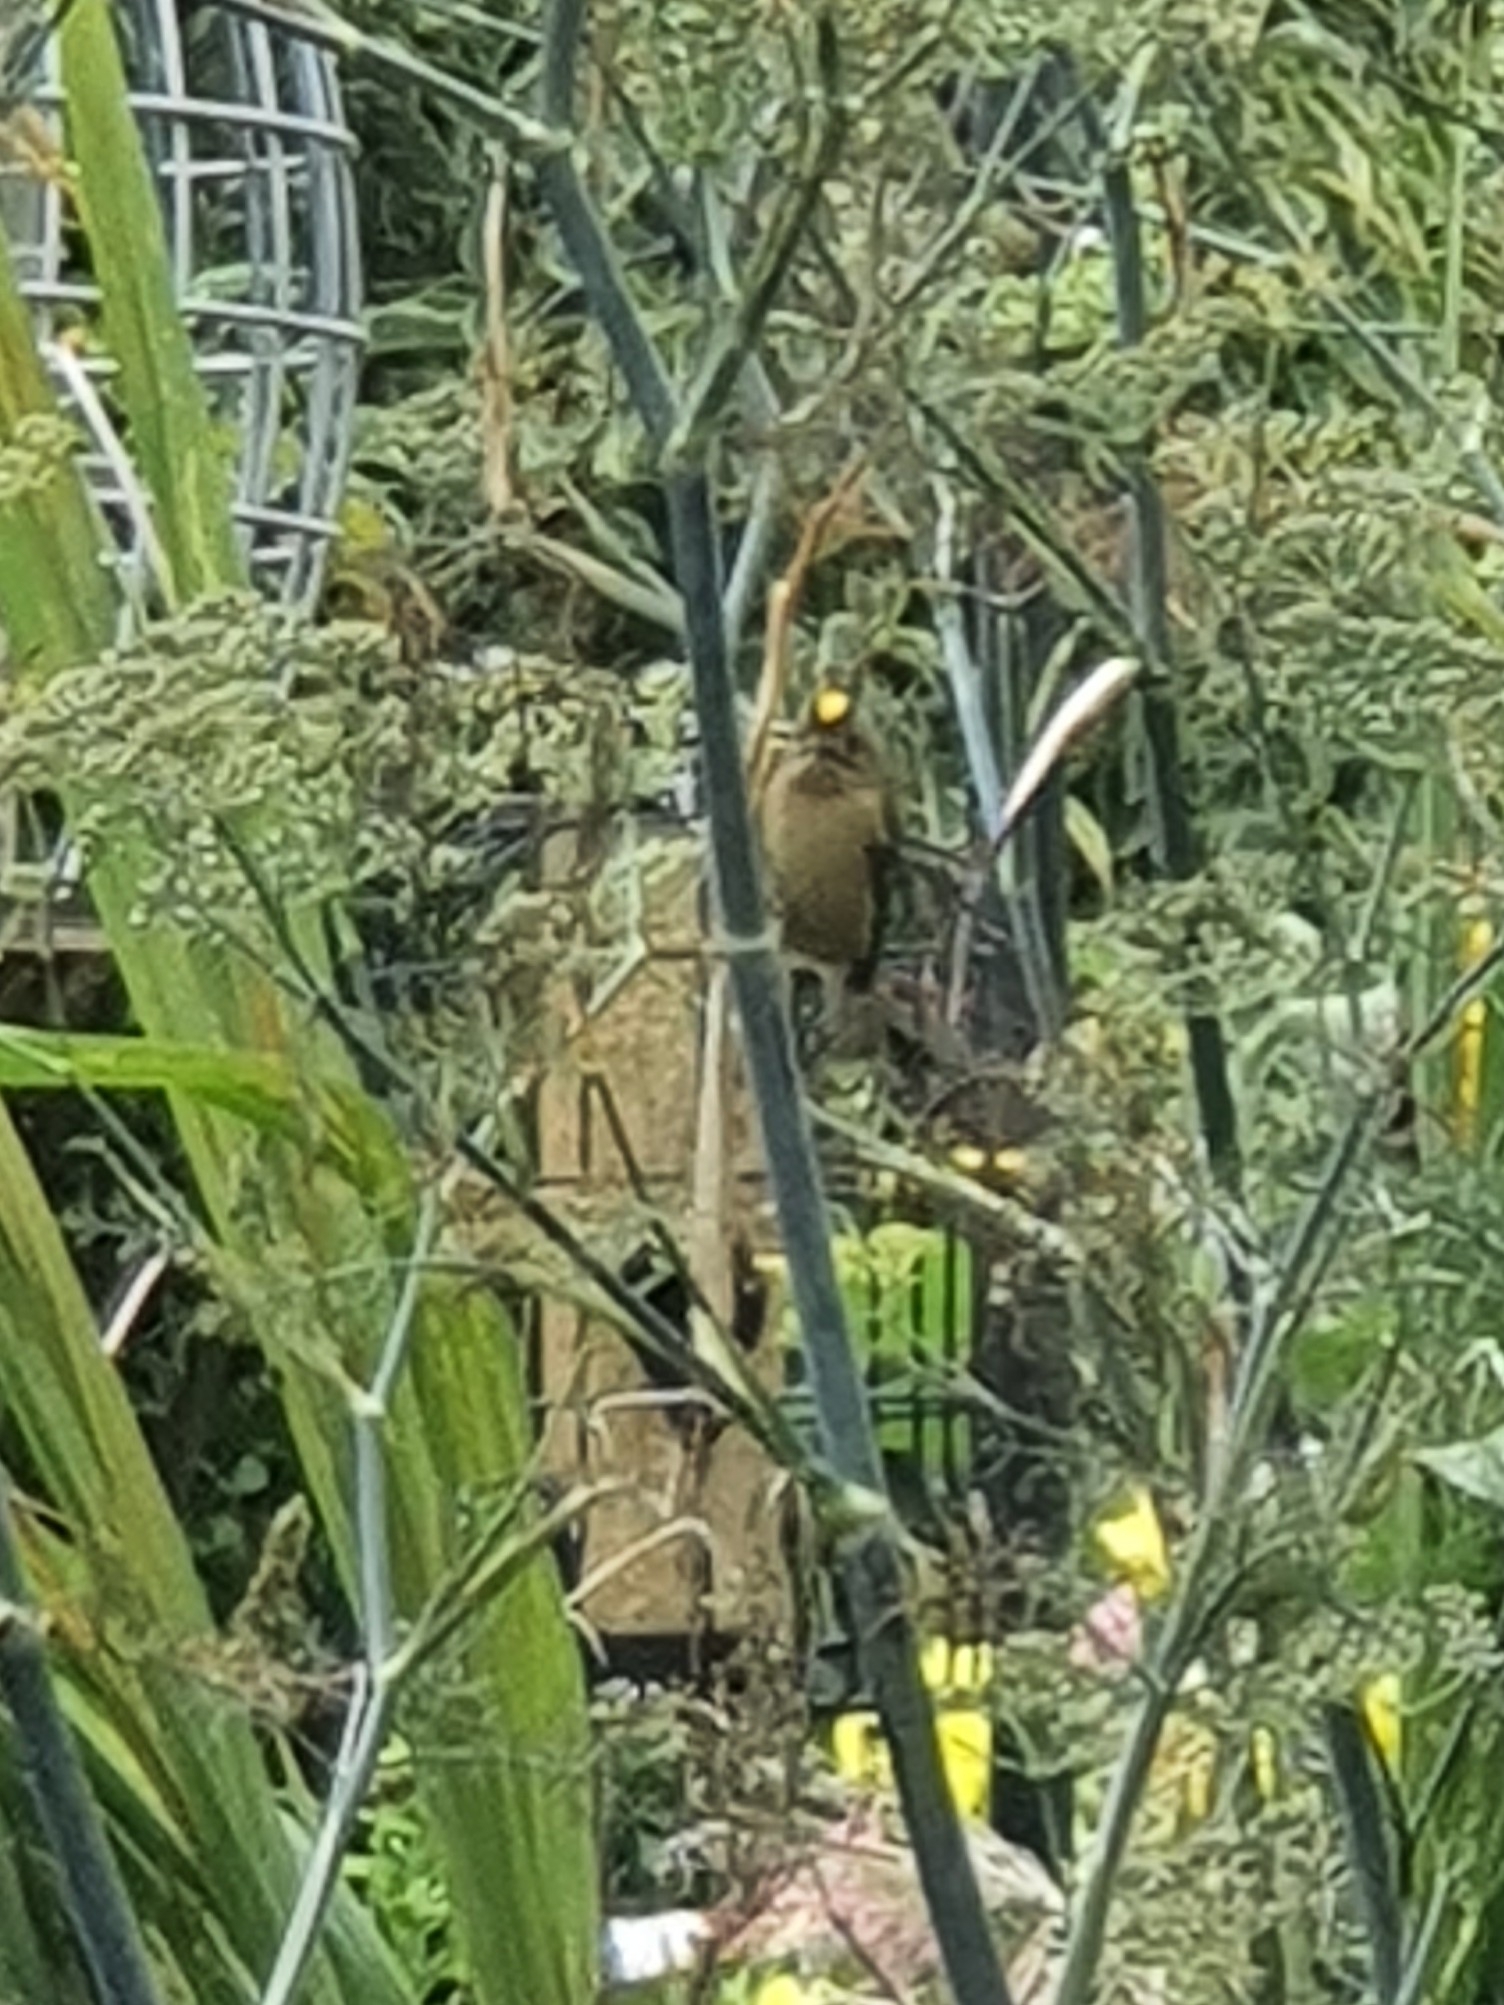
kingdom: Animalia
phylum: Chordata
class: Aves
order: Passeriformes
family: Regulidae
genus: Regulus
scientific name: Regulus regulus
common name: Goldcrest
